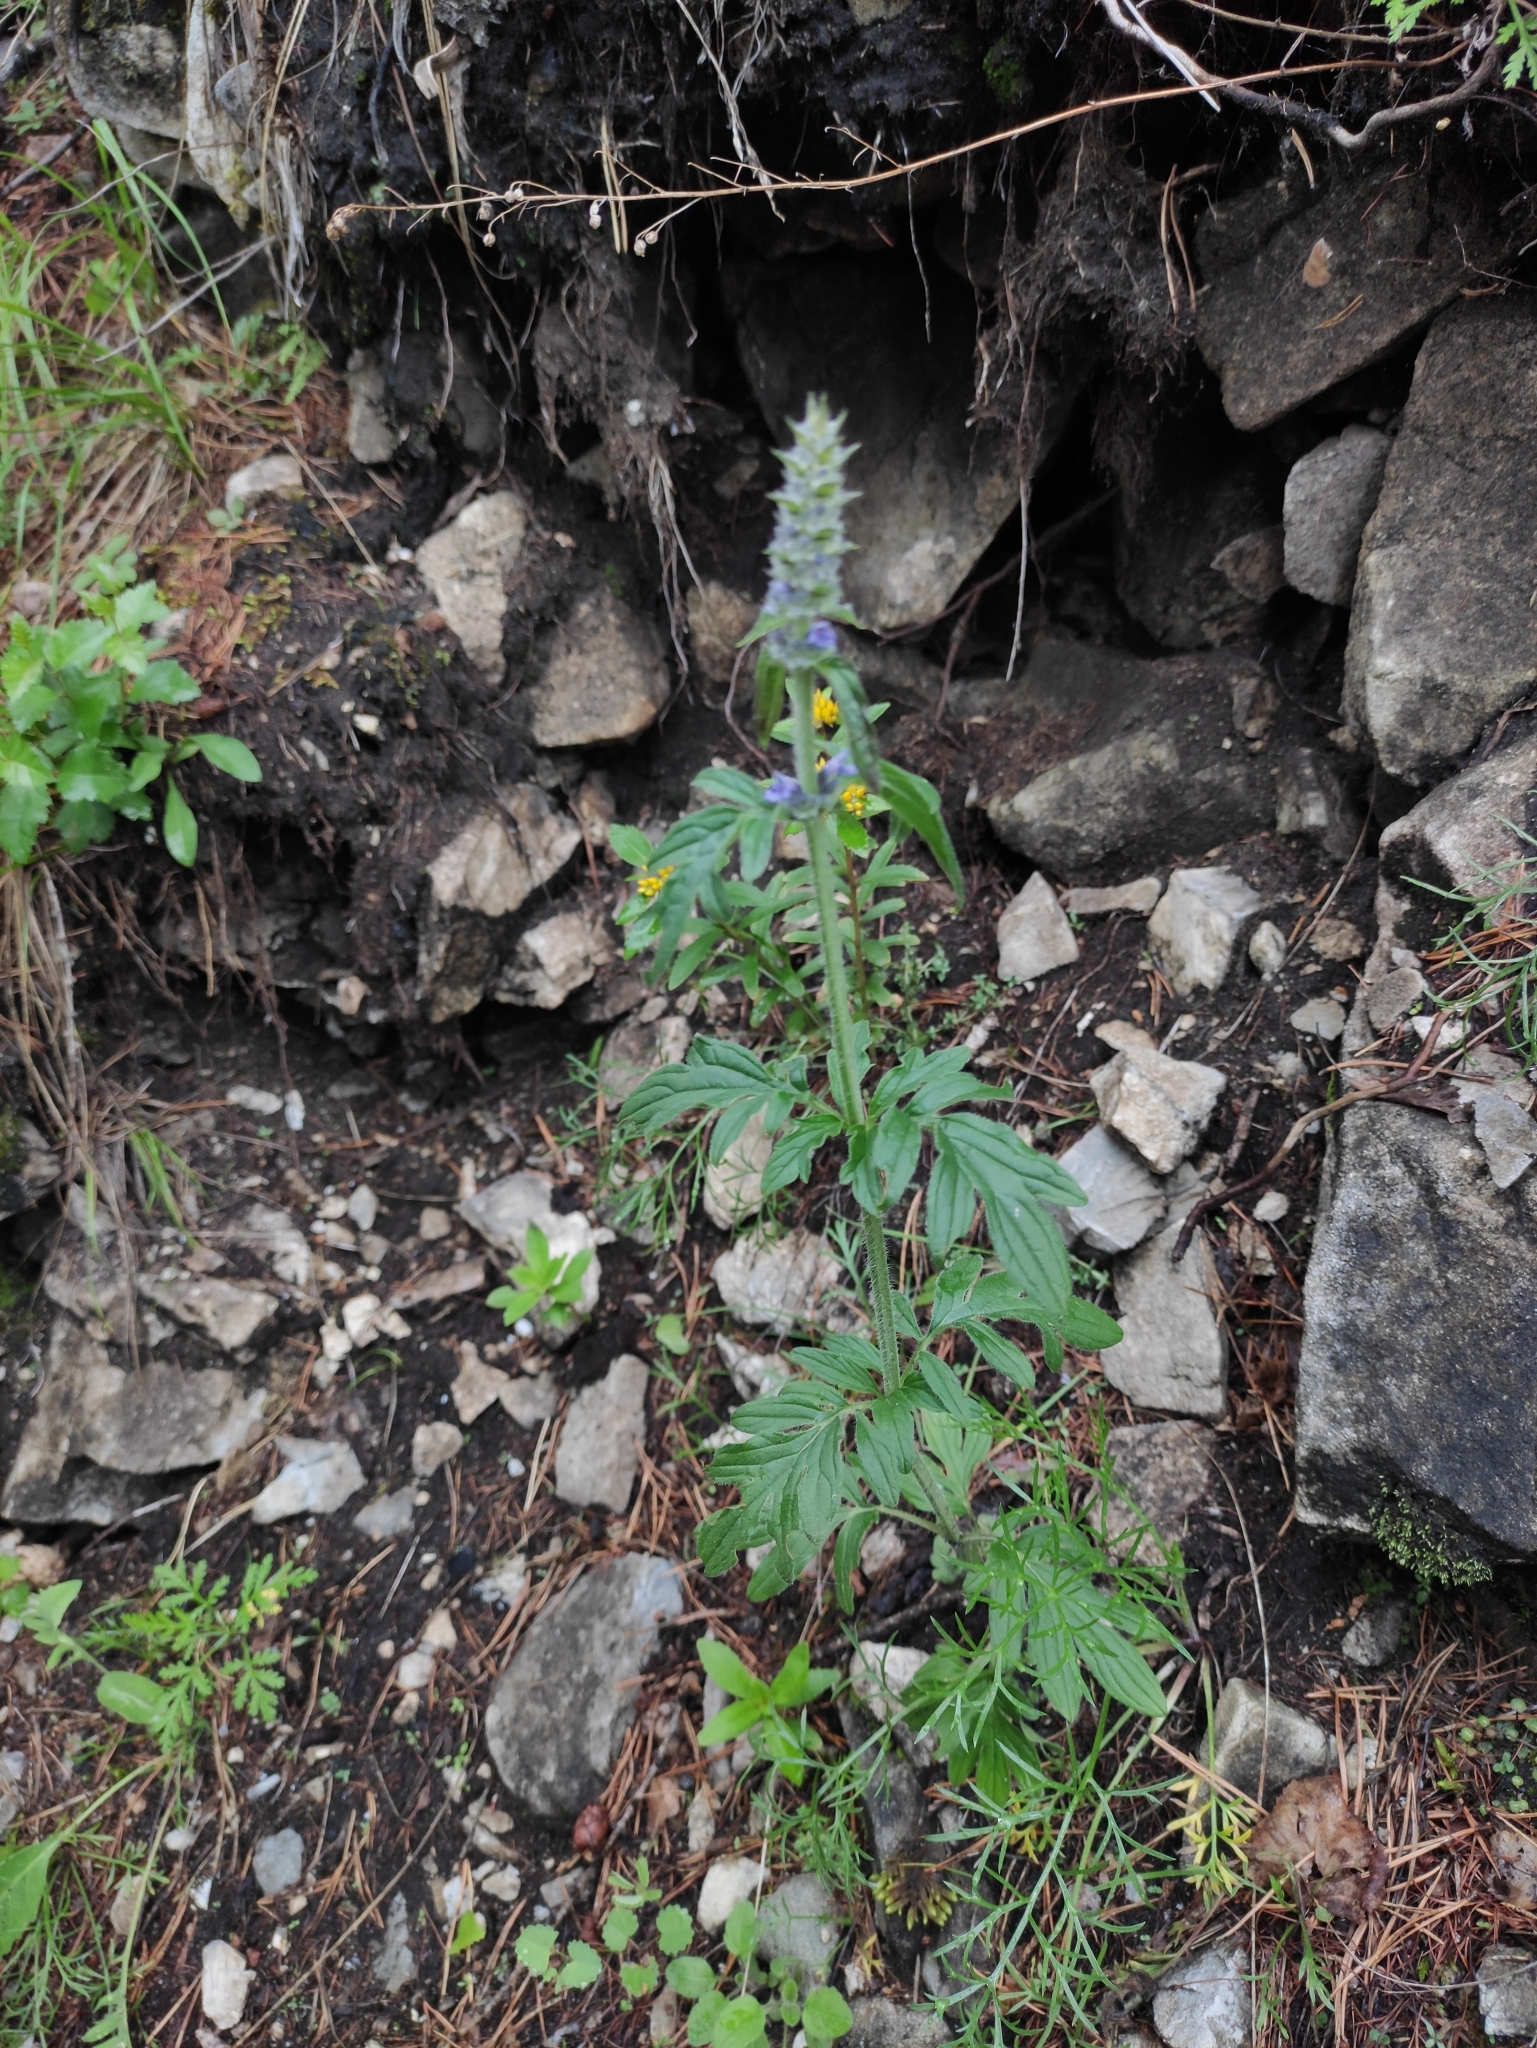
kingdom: Plantae
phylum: Tracheophyta
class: Magnoliopsida
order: Lamiales
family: Lamiaceae
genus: Nepeta
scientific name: Nepeta multifida
